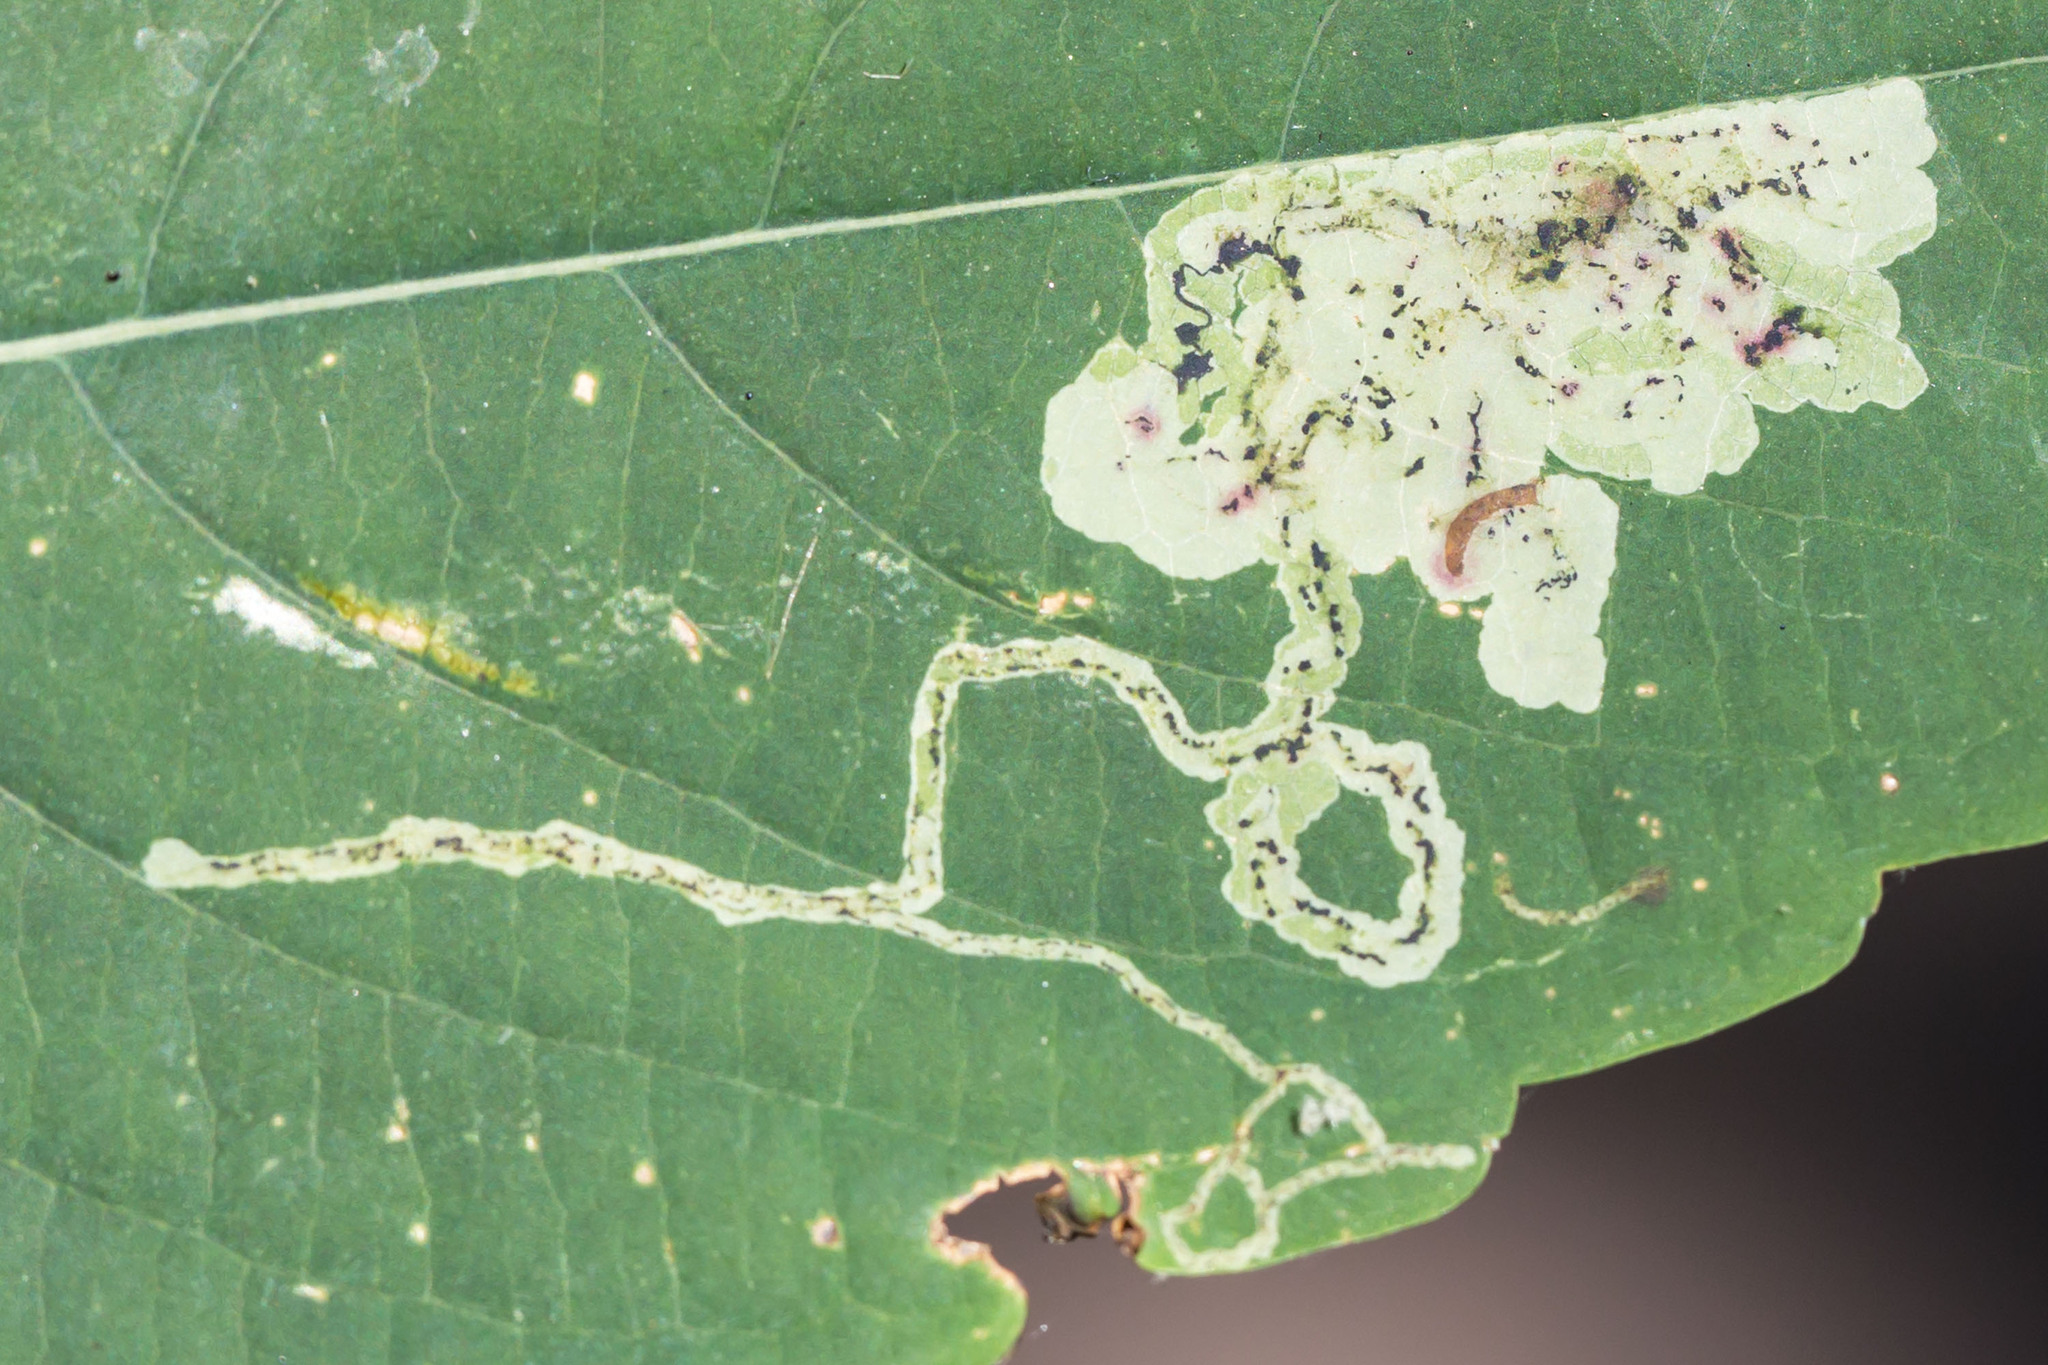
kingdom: Animalia
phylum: Arthropoda
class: Insecta
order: Diptera
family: Agromyzidae
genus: Phytoliriomyza
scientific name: Phytoliriomyza melampyga
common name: Jewelweed leaf-miner fly
